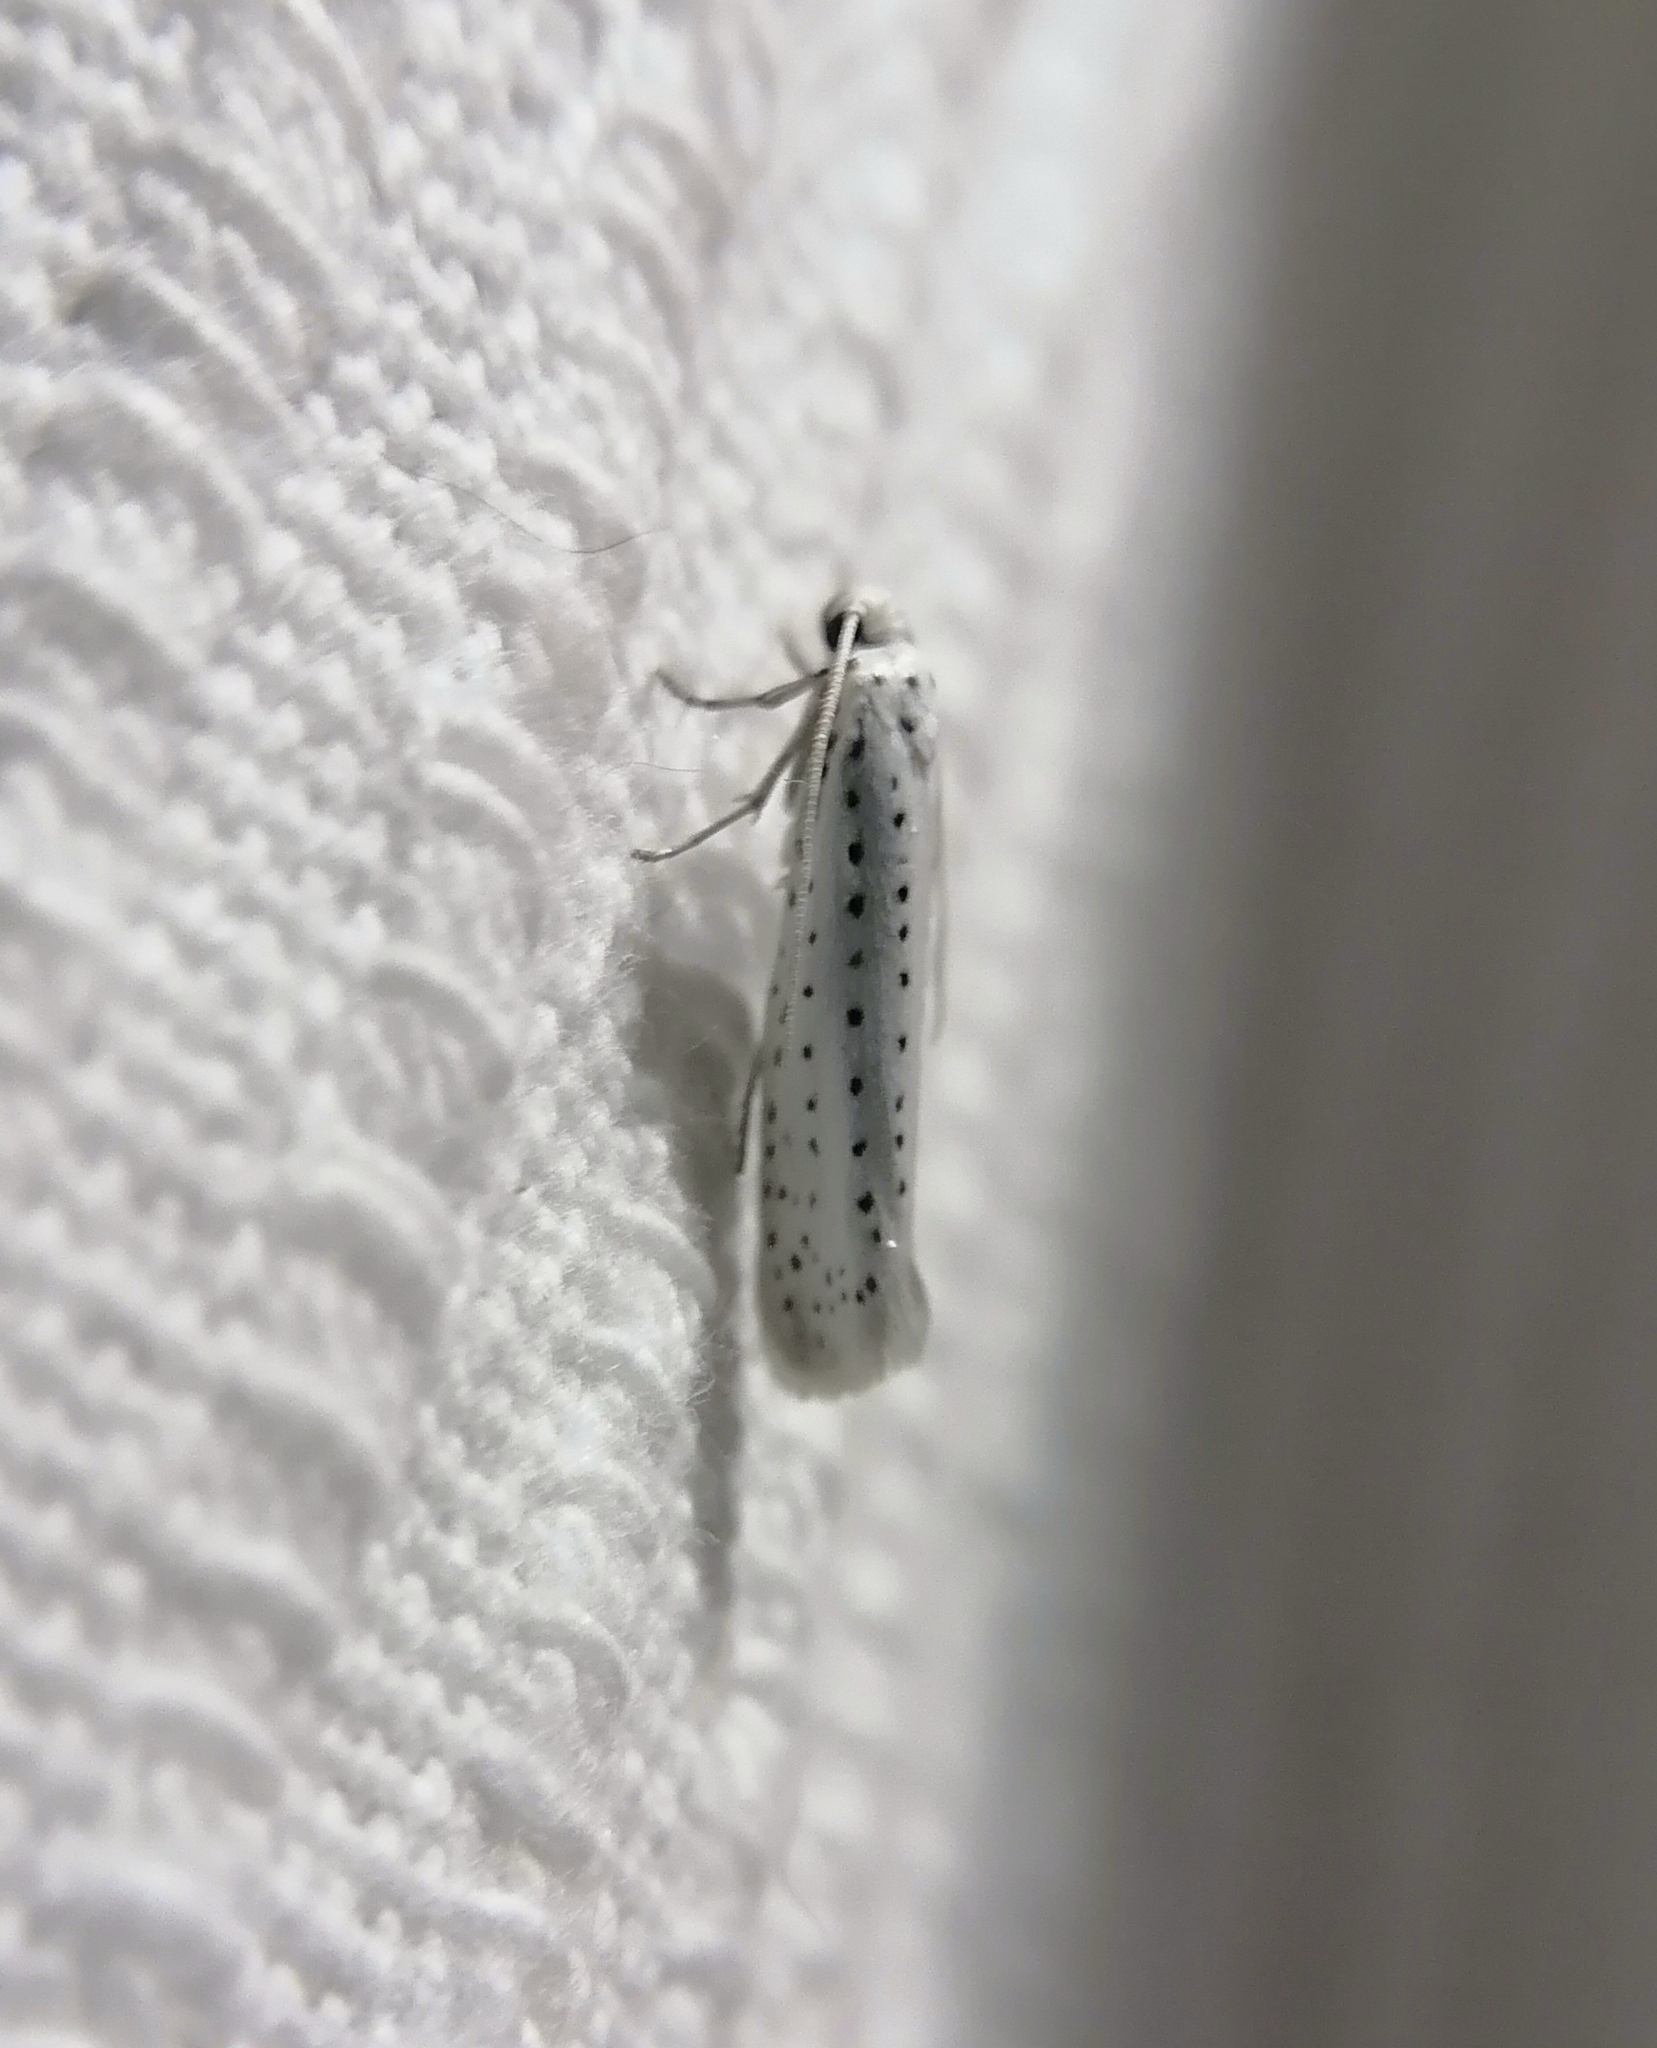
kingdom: Animalia
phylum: Arthropoda
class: Insecta
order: Lepidoptera
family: Yponomeutidae
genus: Yponomeuta
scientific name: Yponomeuta evonymella
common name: Bird-cherry ermine
